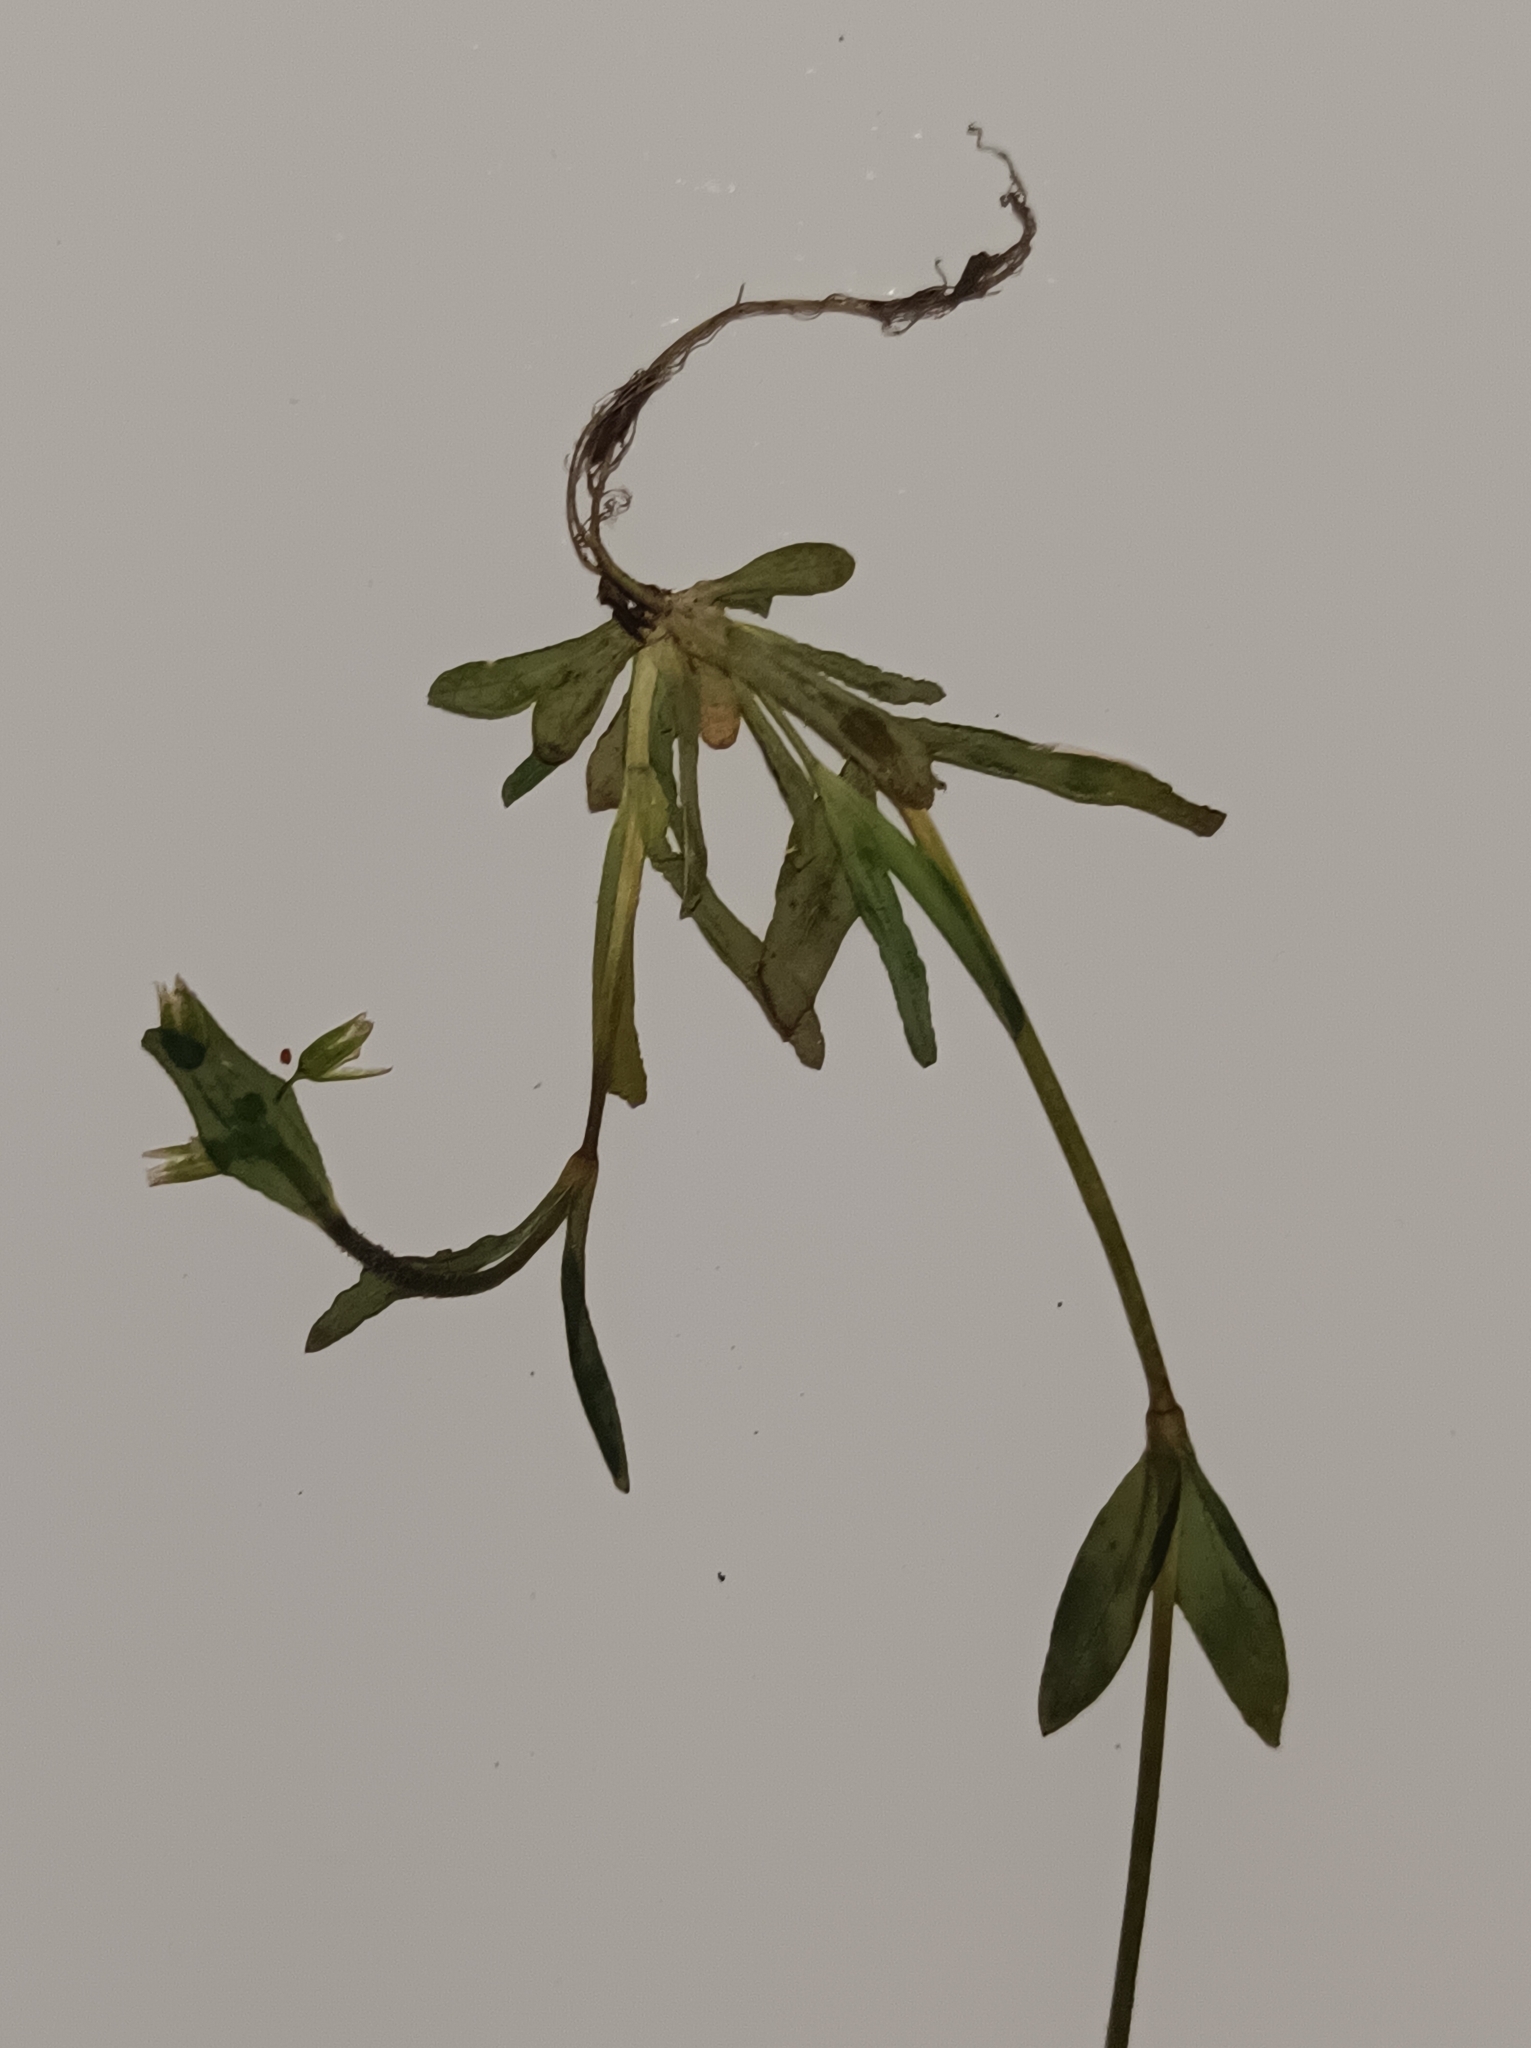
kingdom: Plantae
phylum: Tracheophyta
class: Magnoliopsida
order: Caryophyllales
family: Caryophyllaceae
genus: Holosteum
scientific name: Holosteum umbellatum
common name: Jagged chickweed
